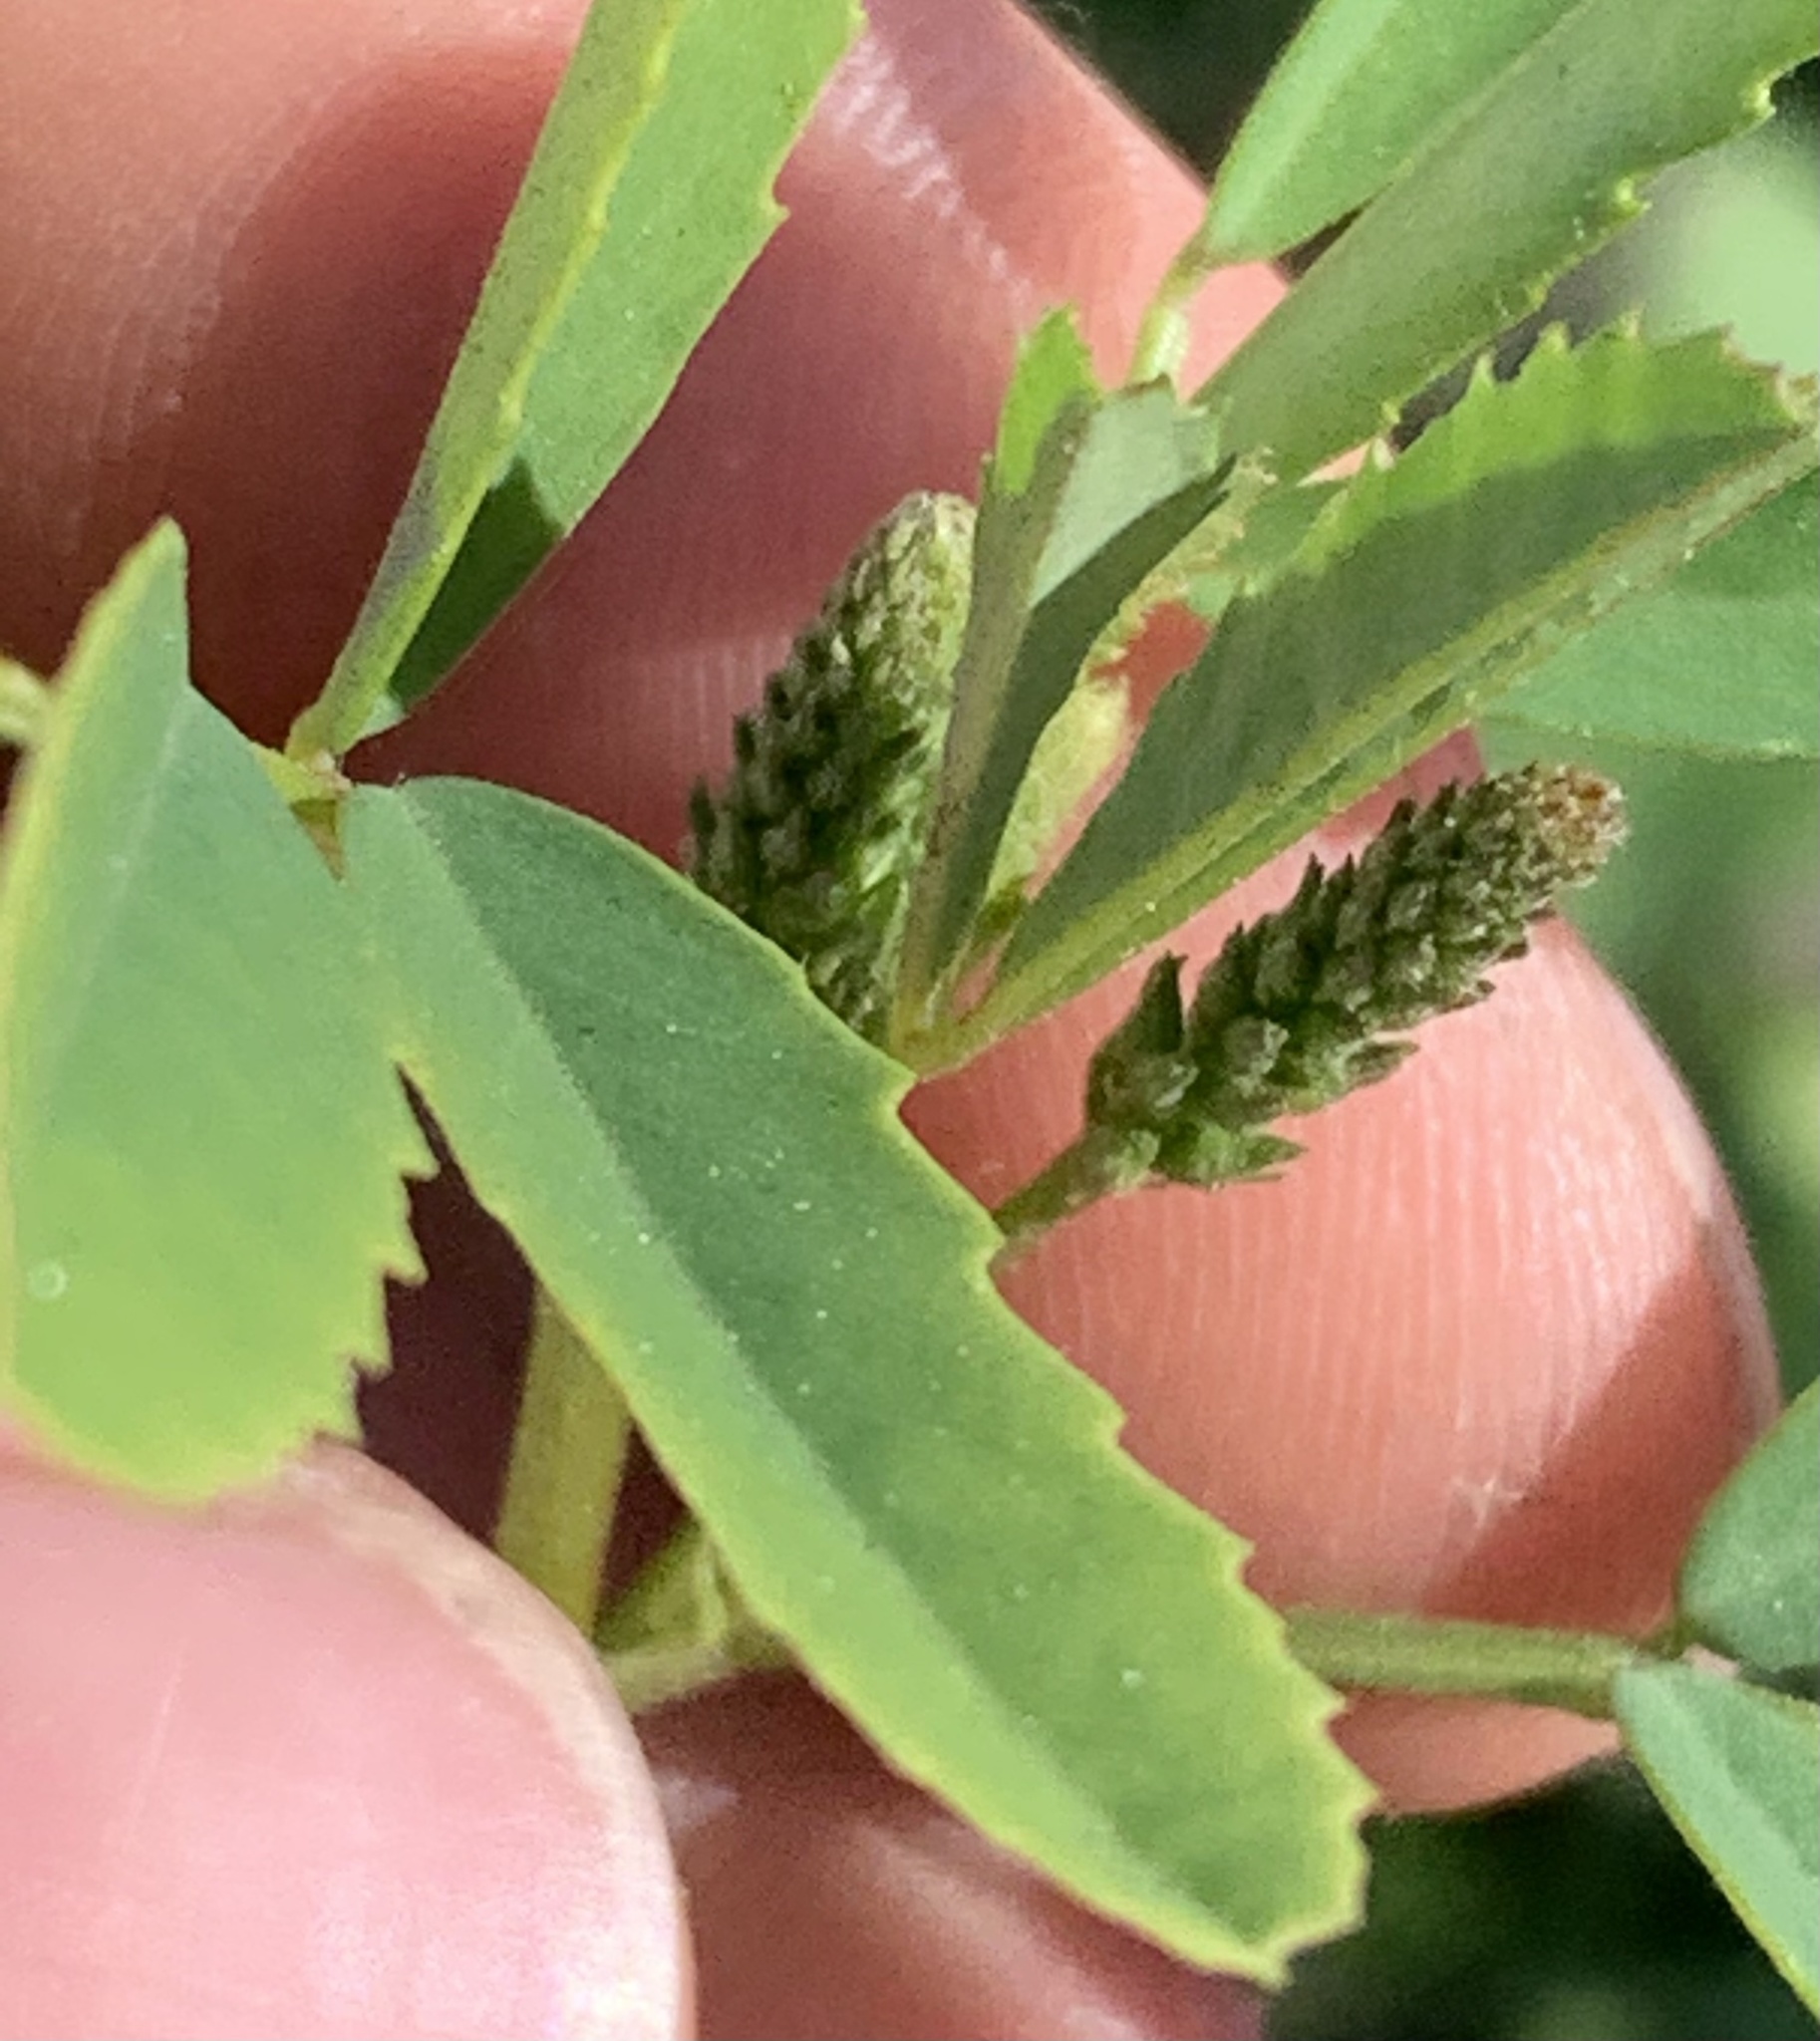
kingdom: Plantae
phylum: Tracheophyta
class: Magnoliopsida
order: Fabales
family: Fabaceae
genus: Melilotus
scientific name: Melilotus albus
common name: White melilot
